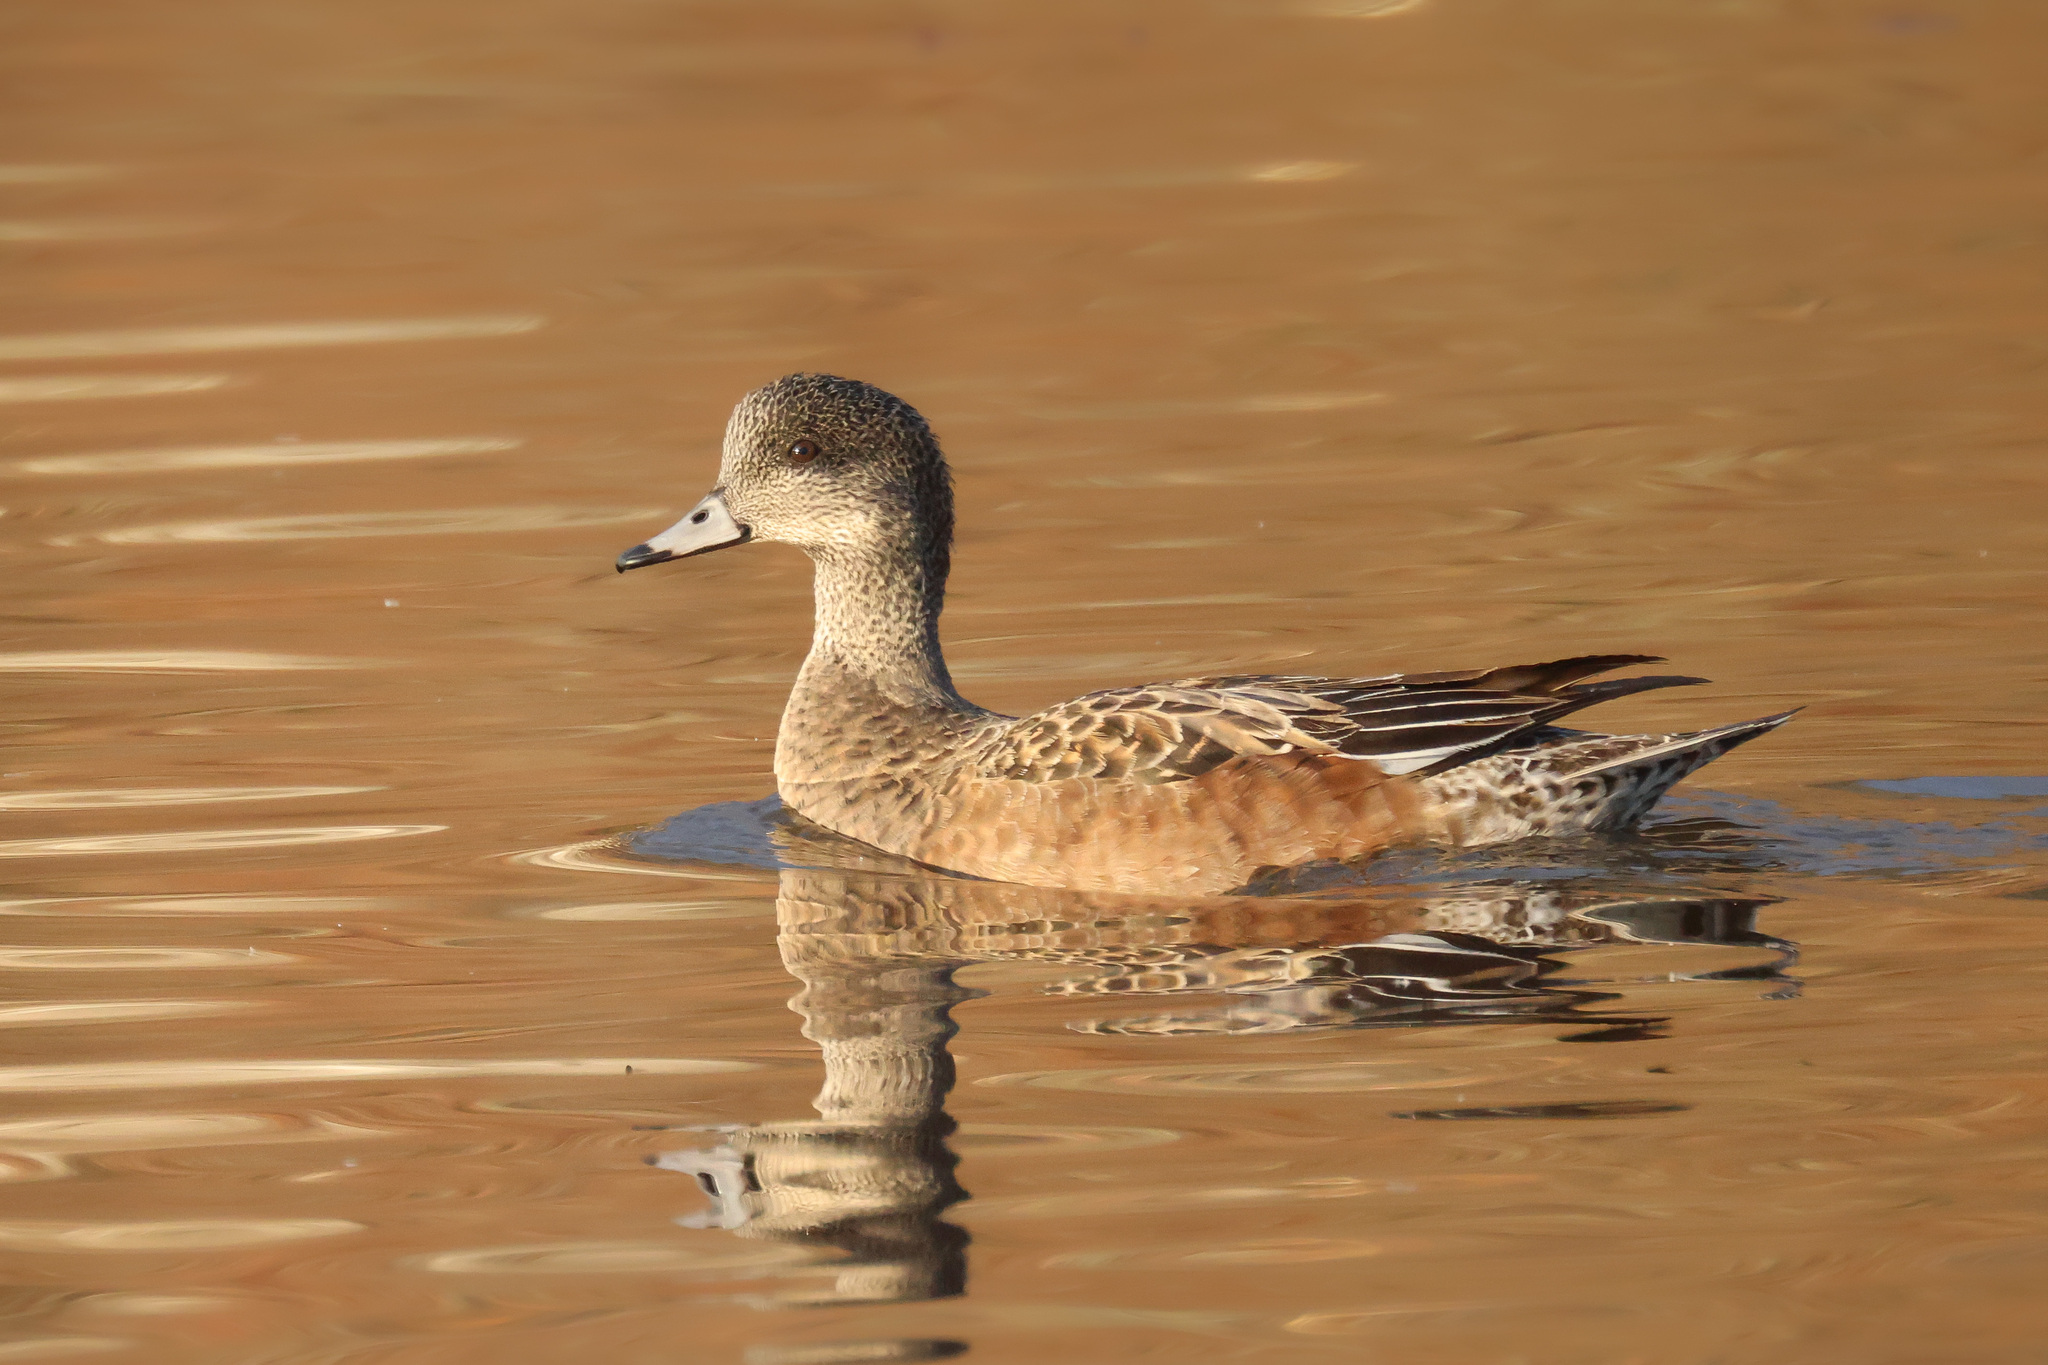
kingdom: Animalia
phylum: Chordata
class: Aves
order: Anseriformes
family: Anatidae
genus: Mareca
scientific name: Mareca americana
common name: American wigeon
